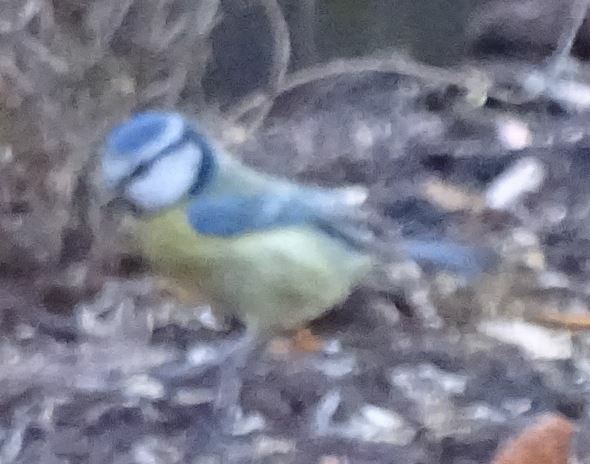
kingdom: Animalia
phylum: Chordata
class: Aves
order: Passeriformes
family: Paridae
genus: Cyanistes
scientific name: Cyanistes caeruleus
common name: Eurasian blue tit
